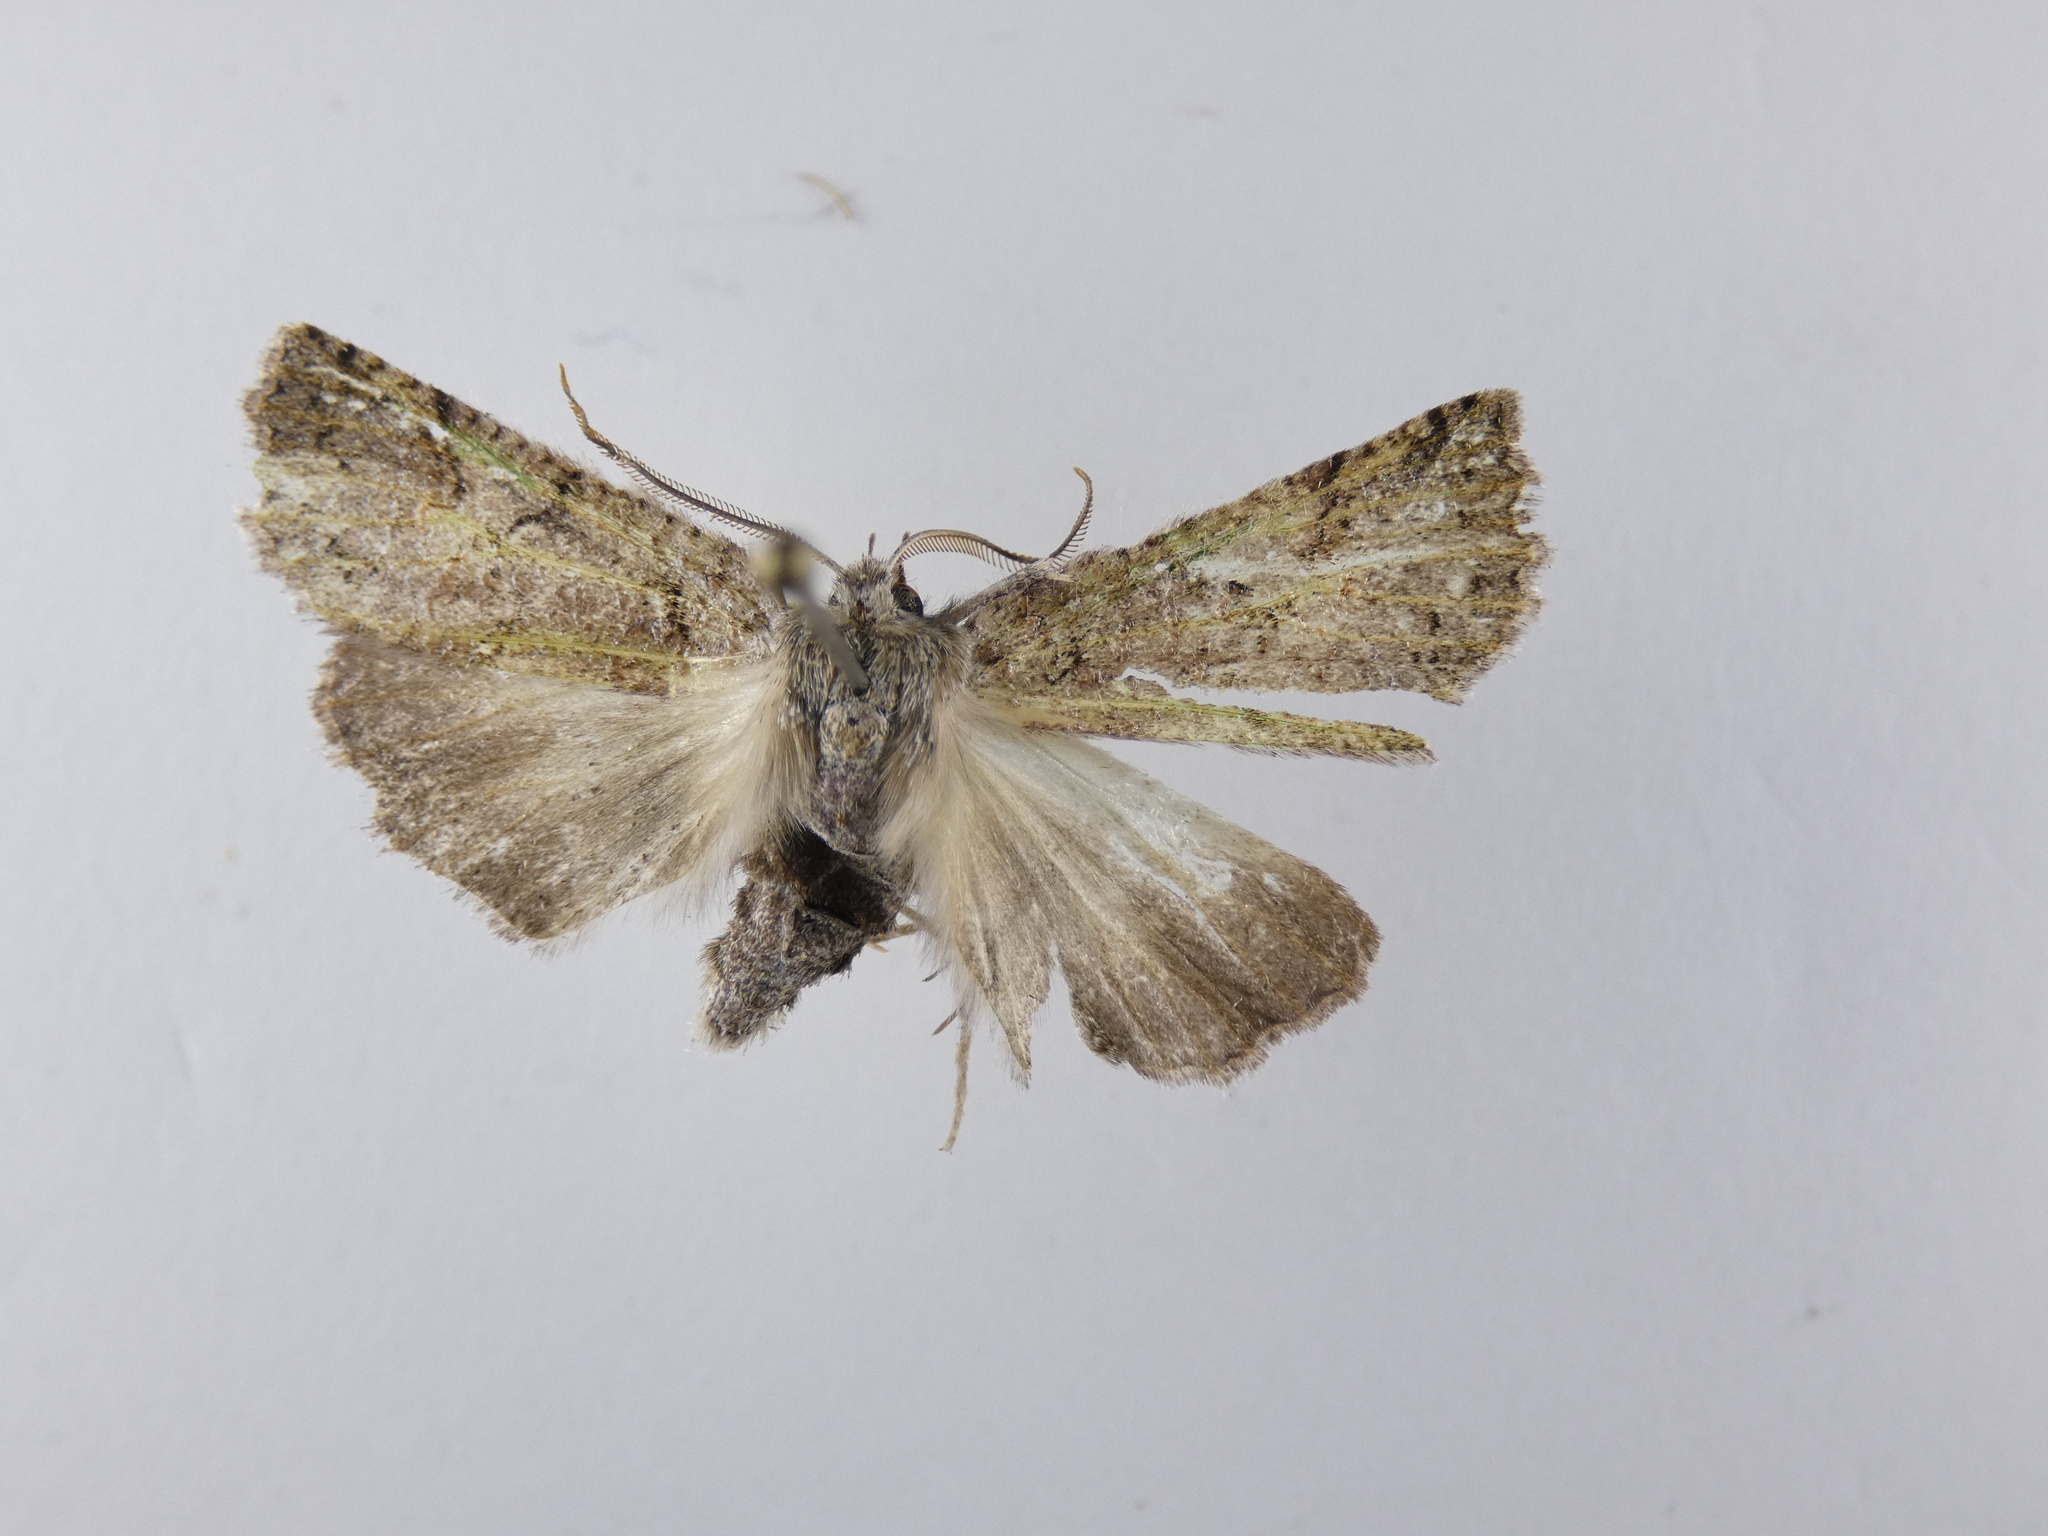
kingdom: Animalia
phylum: Arthropoda
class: Insecta
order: Lepidoptera
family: Geometridae
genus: Declana
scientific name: Declana floccosa
